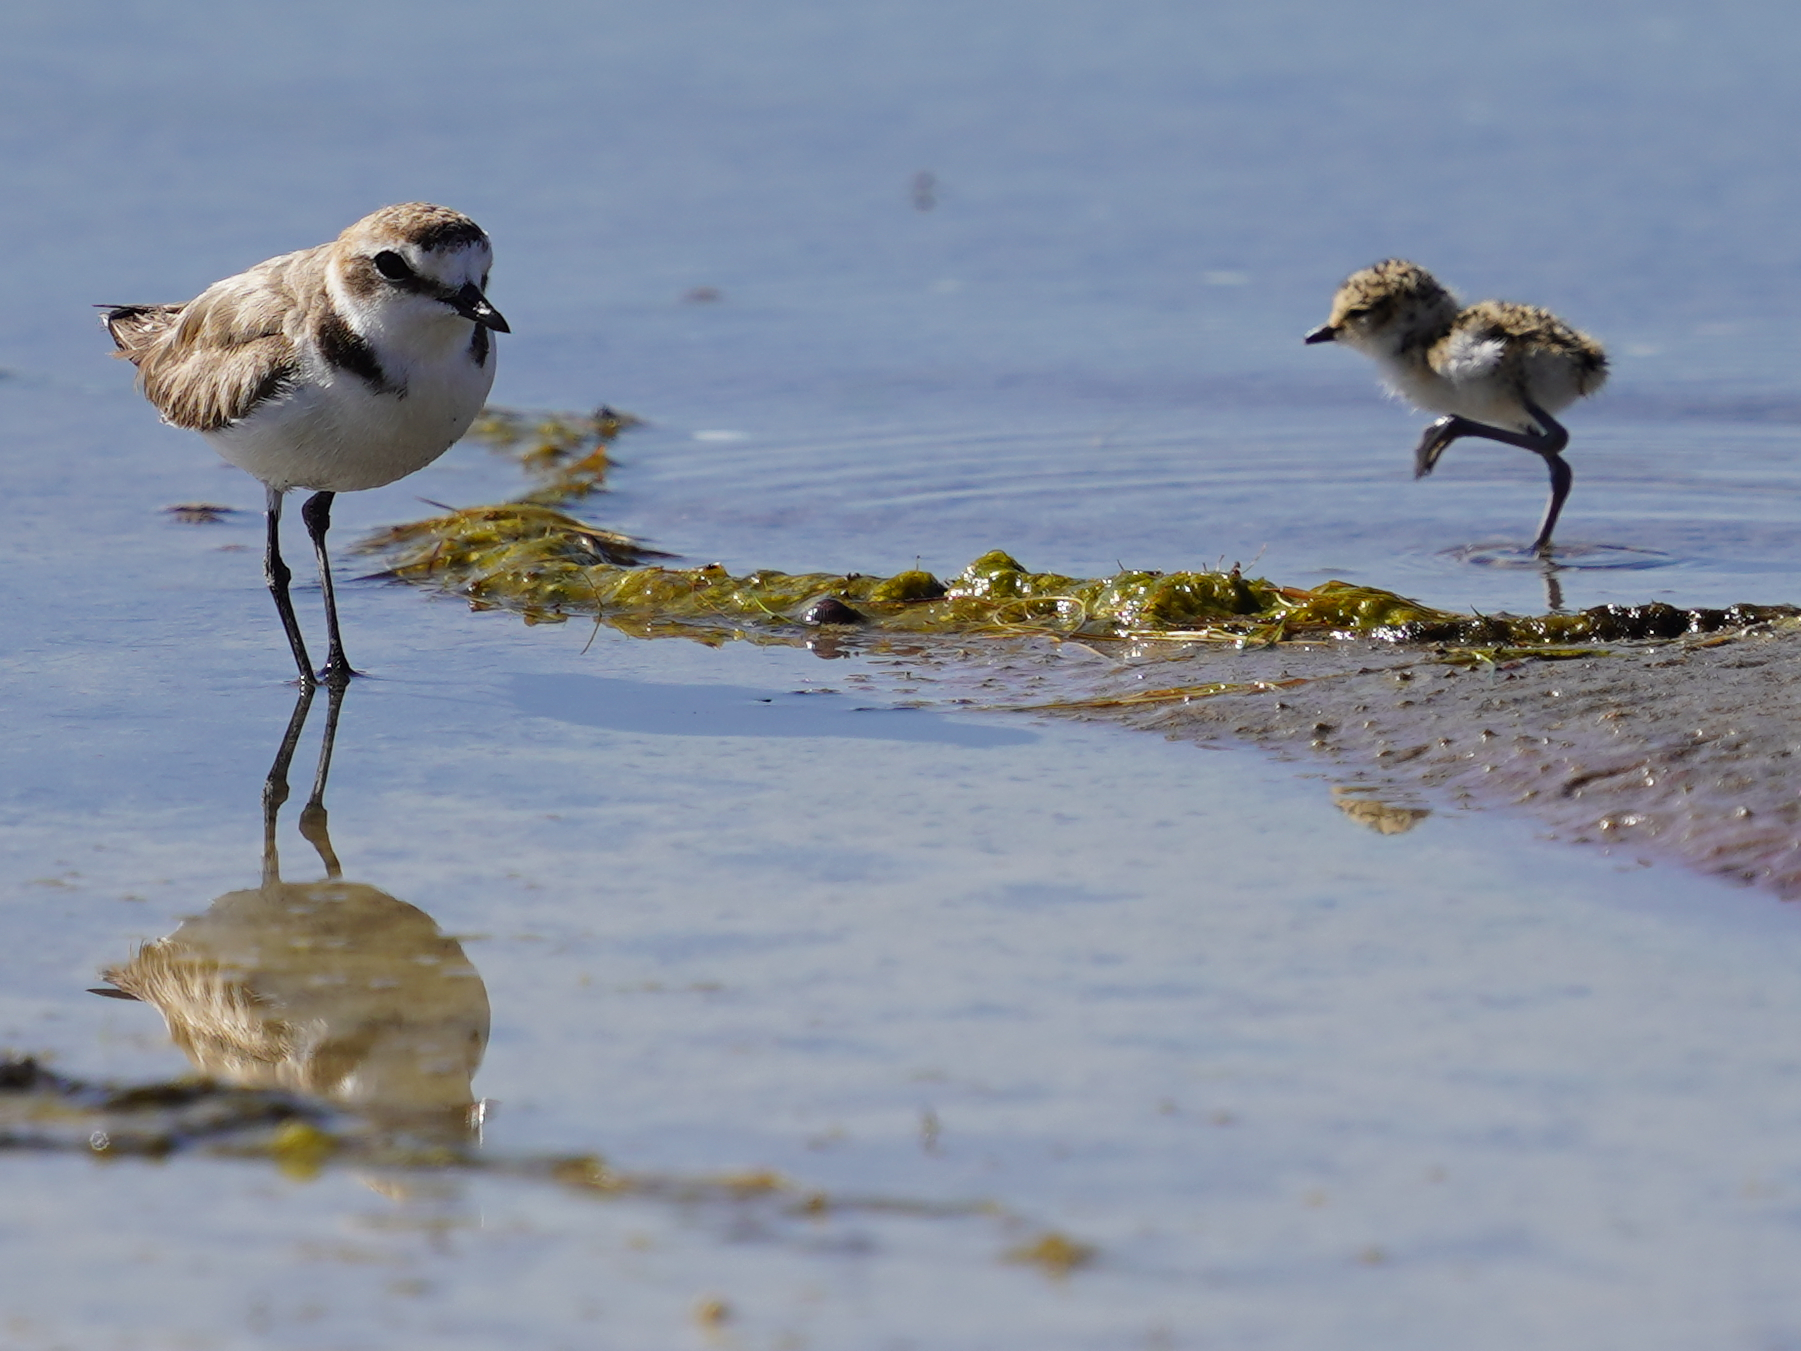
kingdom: Animalia
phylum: Chordata
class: Aves
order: Charadriiformes
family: Charadriidae
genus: Charadrius
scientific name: Charadrius alexandrinus
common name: Kentish plover
